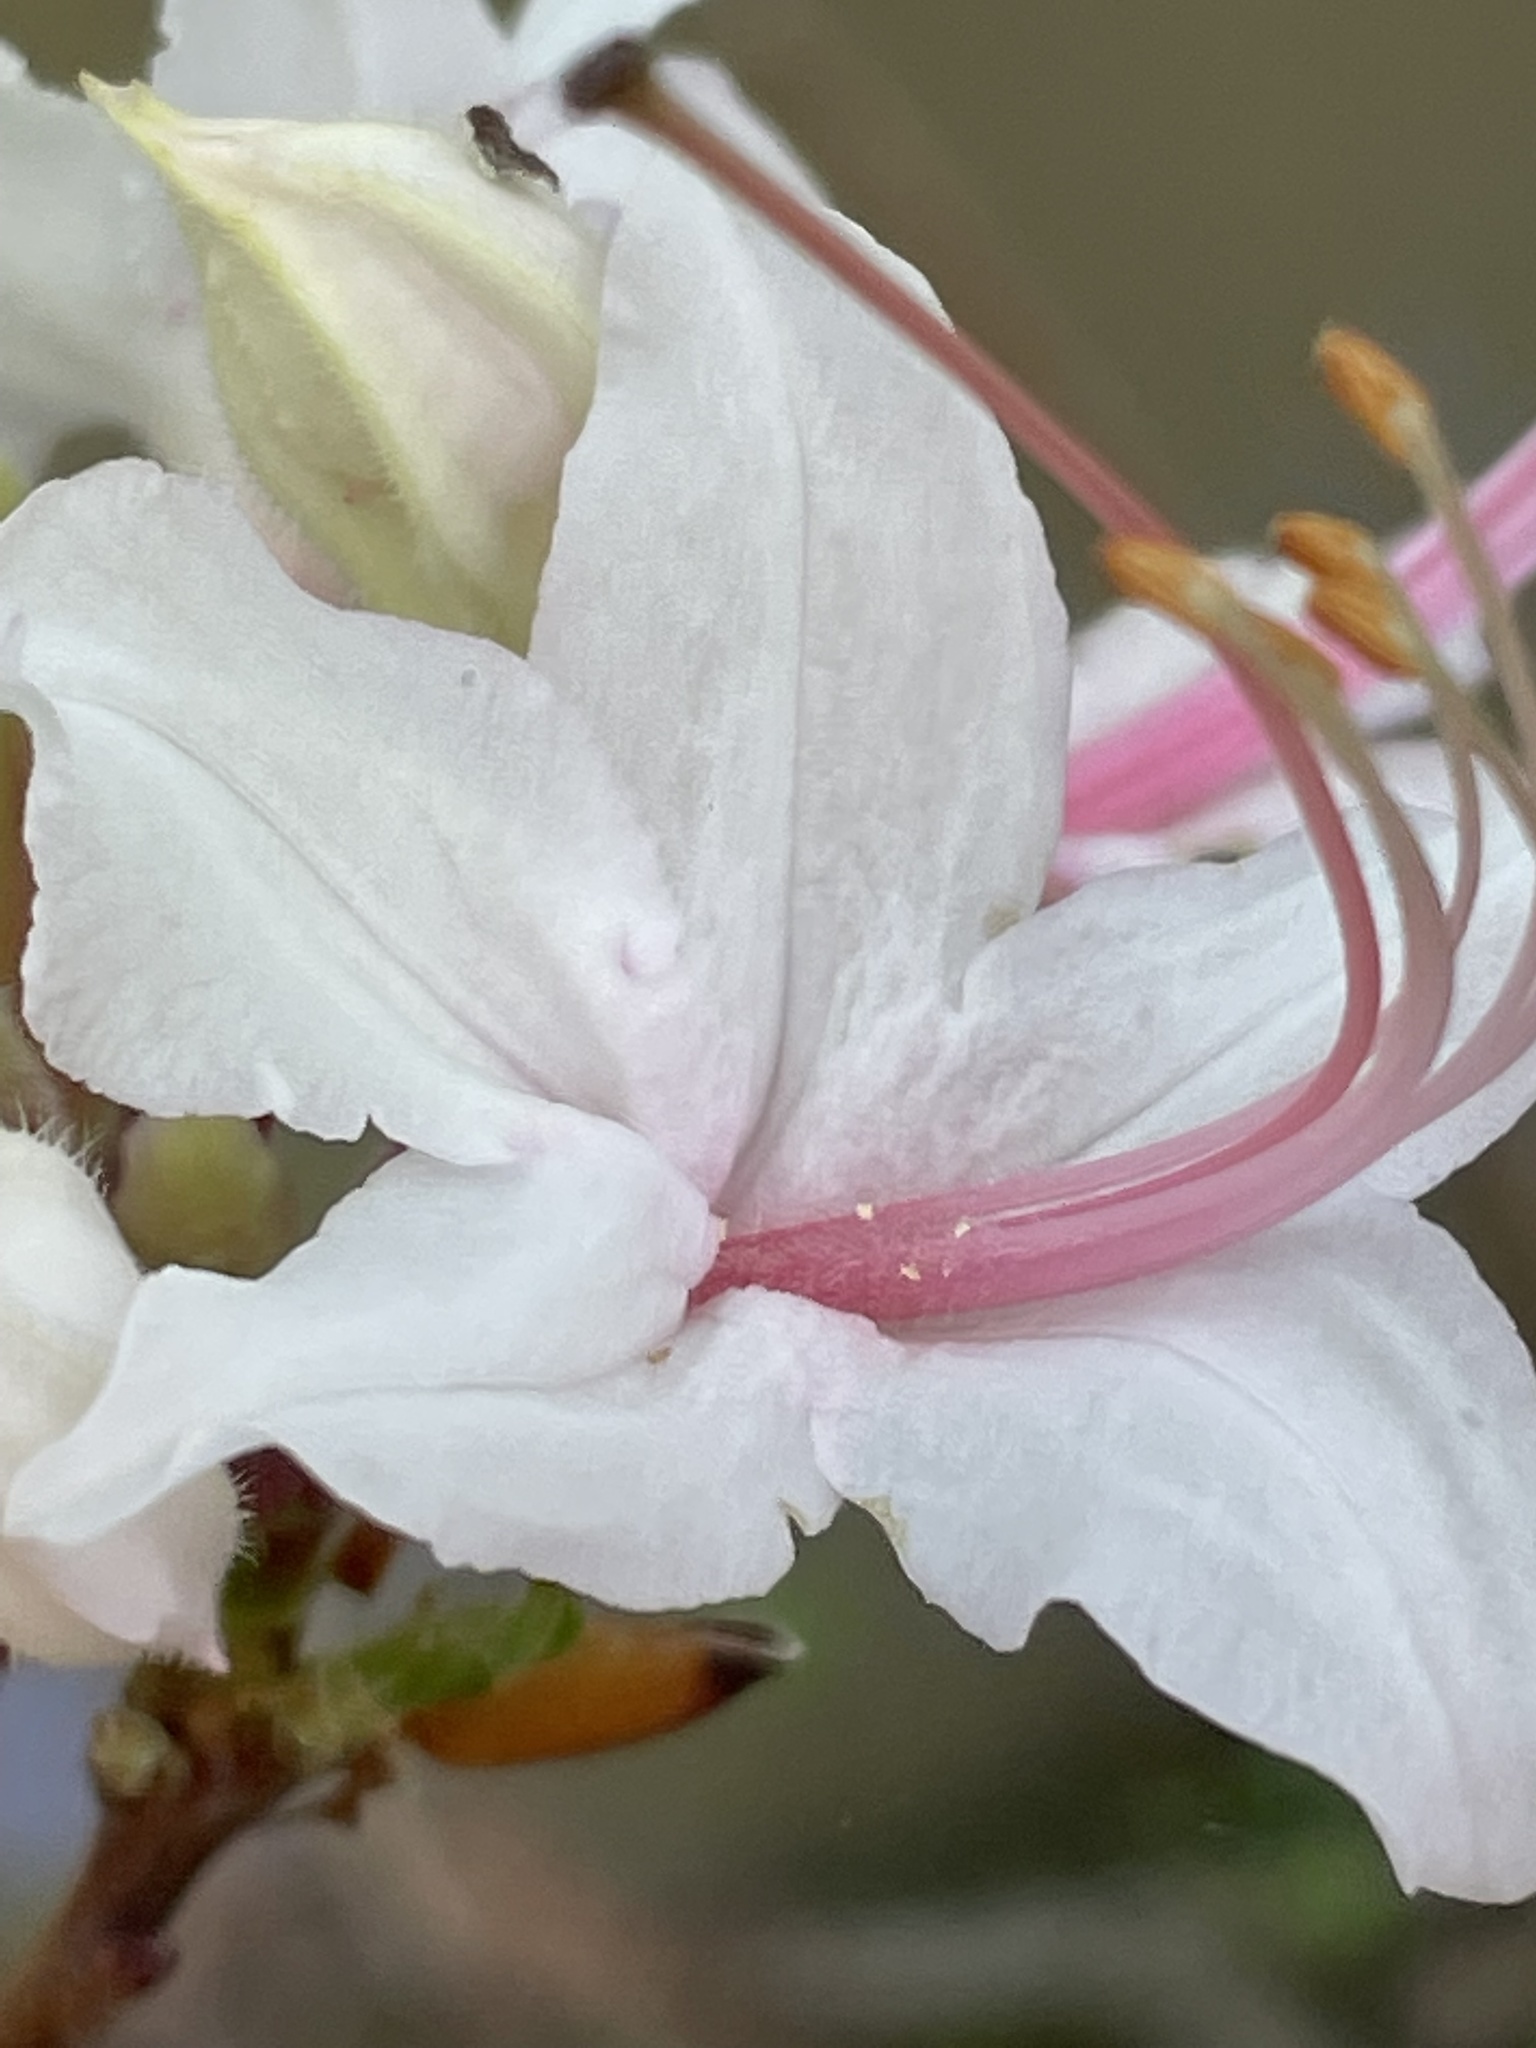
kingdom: Plantae
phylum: Tracheophyta
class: Magnoliopsida
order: Ericales
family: Ericaceae
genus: Rhododendron
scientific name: Rhododendron periclymenoides
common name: Election-pink
